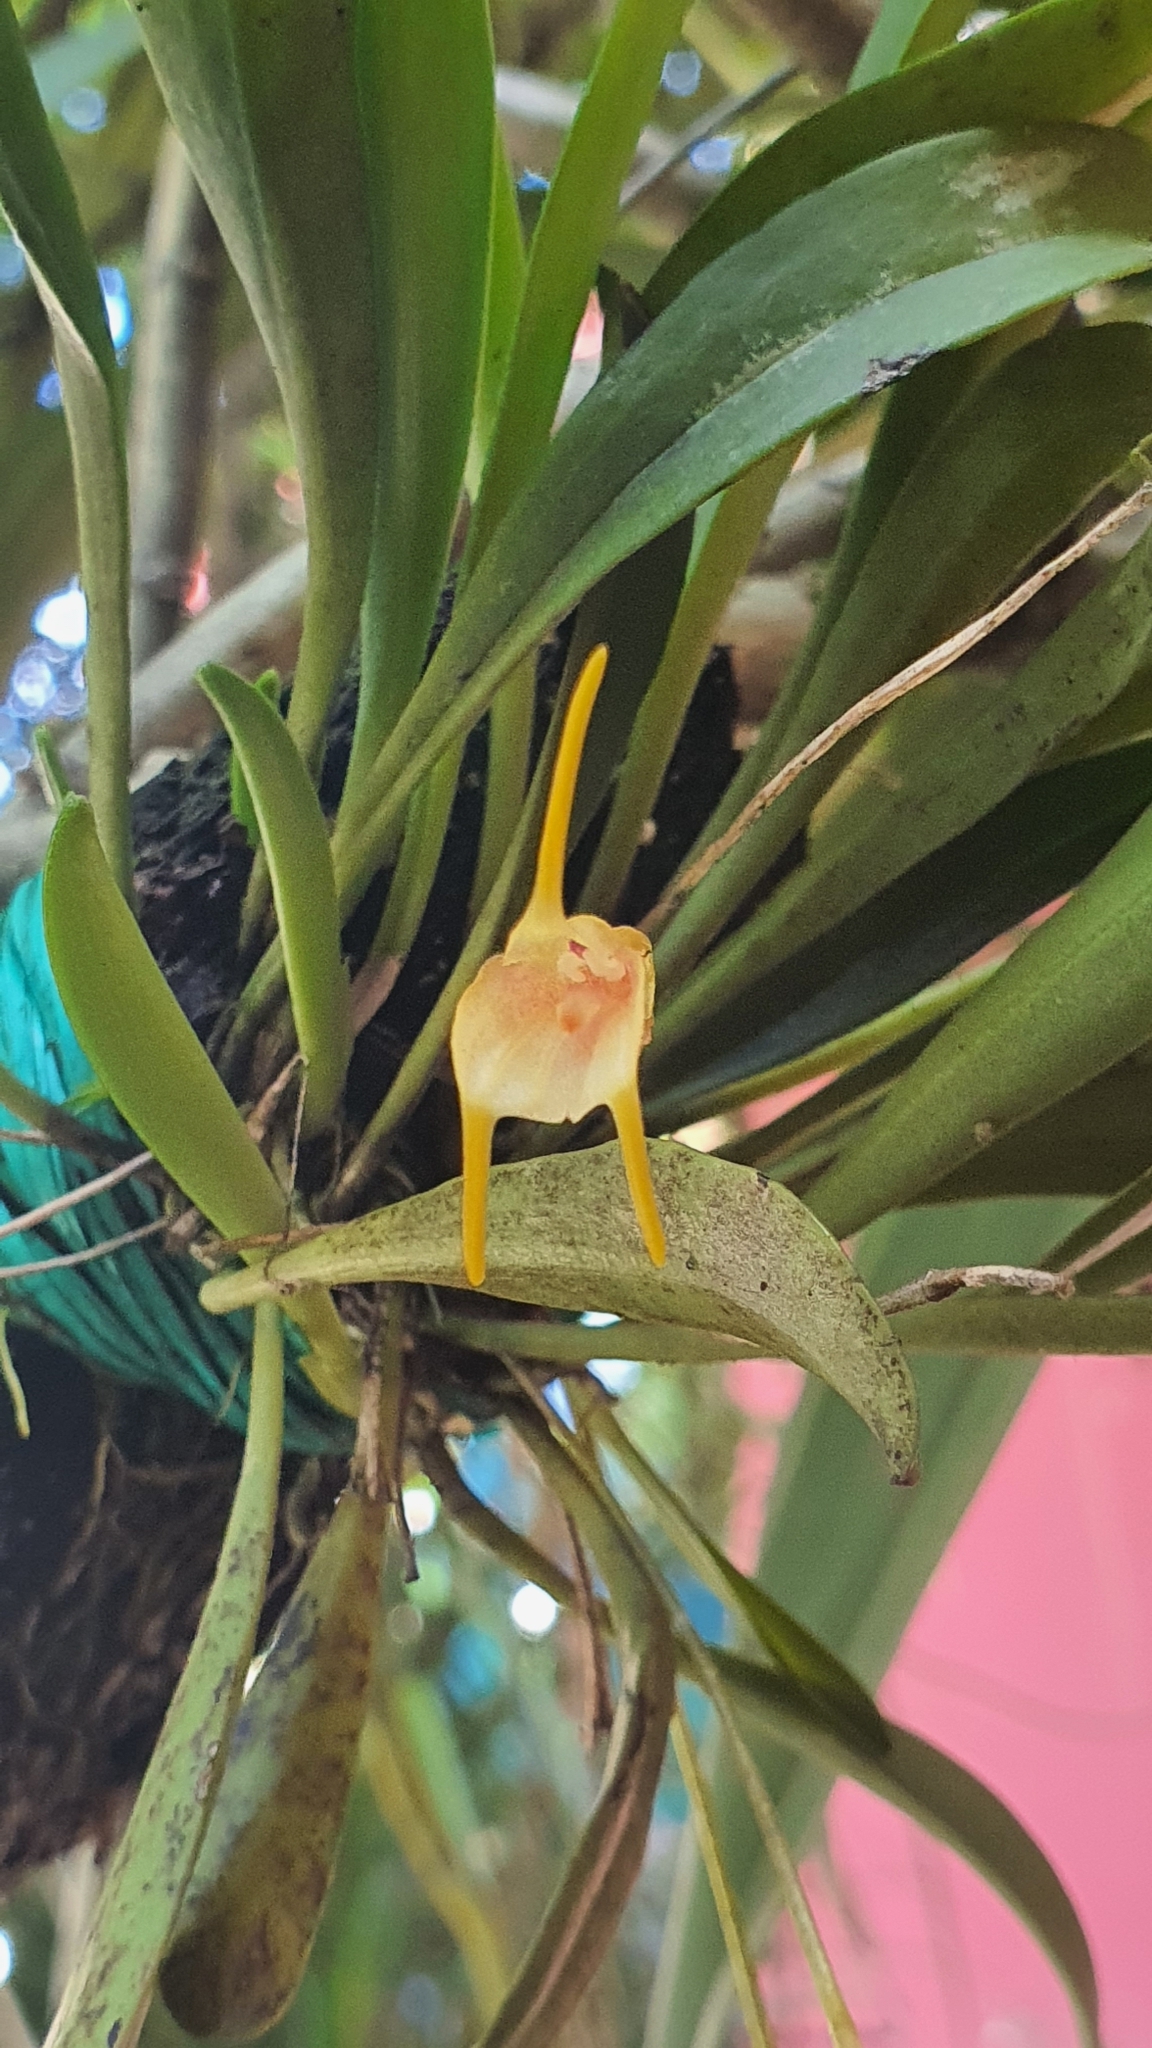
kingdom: Plantae
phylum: Tracheophyta
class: Liliopsida
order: Asparagales
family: Orchidaceae
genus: Masdevallia
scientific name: Masdevallia floribunda
